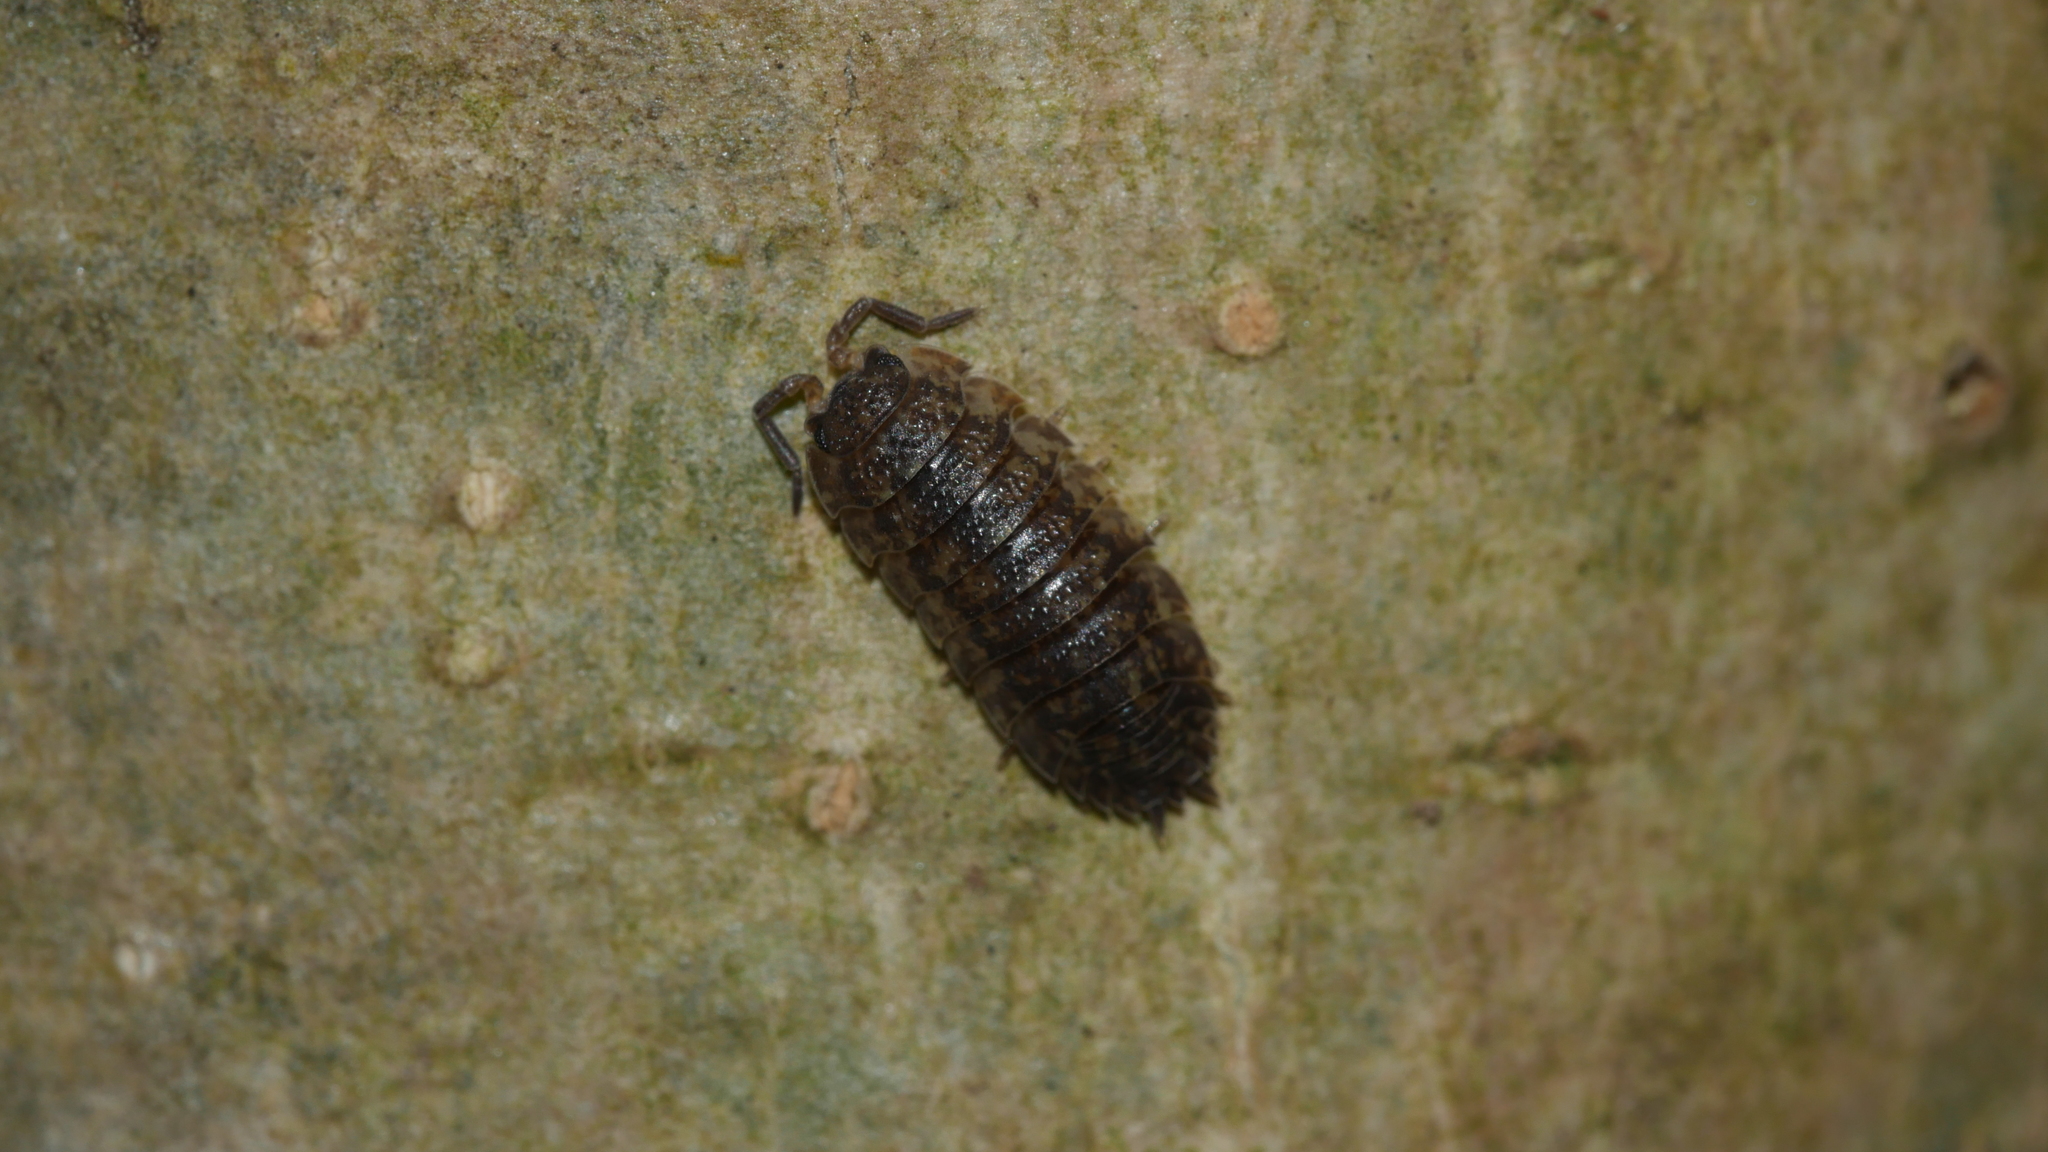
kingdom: Animalia
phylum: Arthropoda
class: Malacostraca
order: Isopoda
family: Porcellionidae
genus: Porcellio
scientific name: Porcellio scaber
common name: Common rough woodlouse
